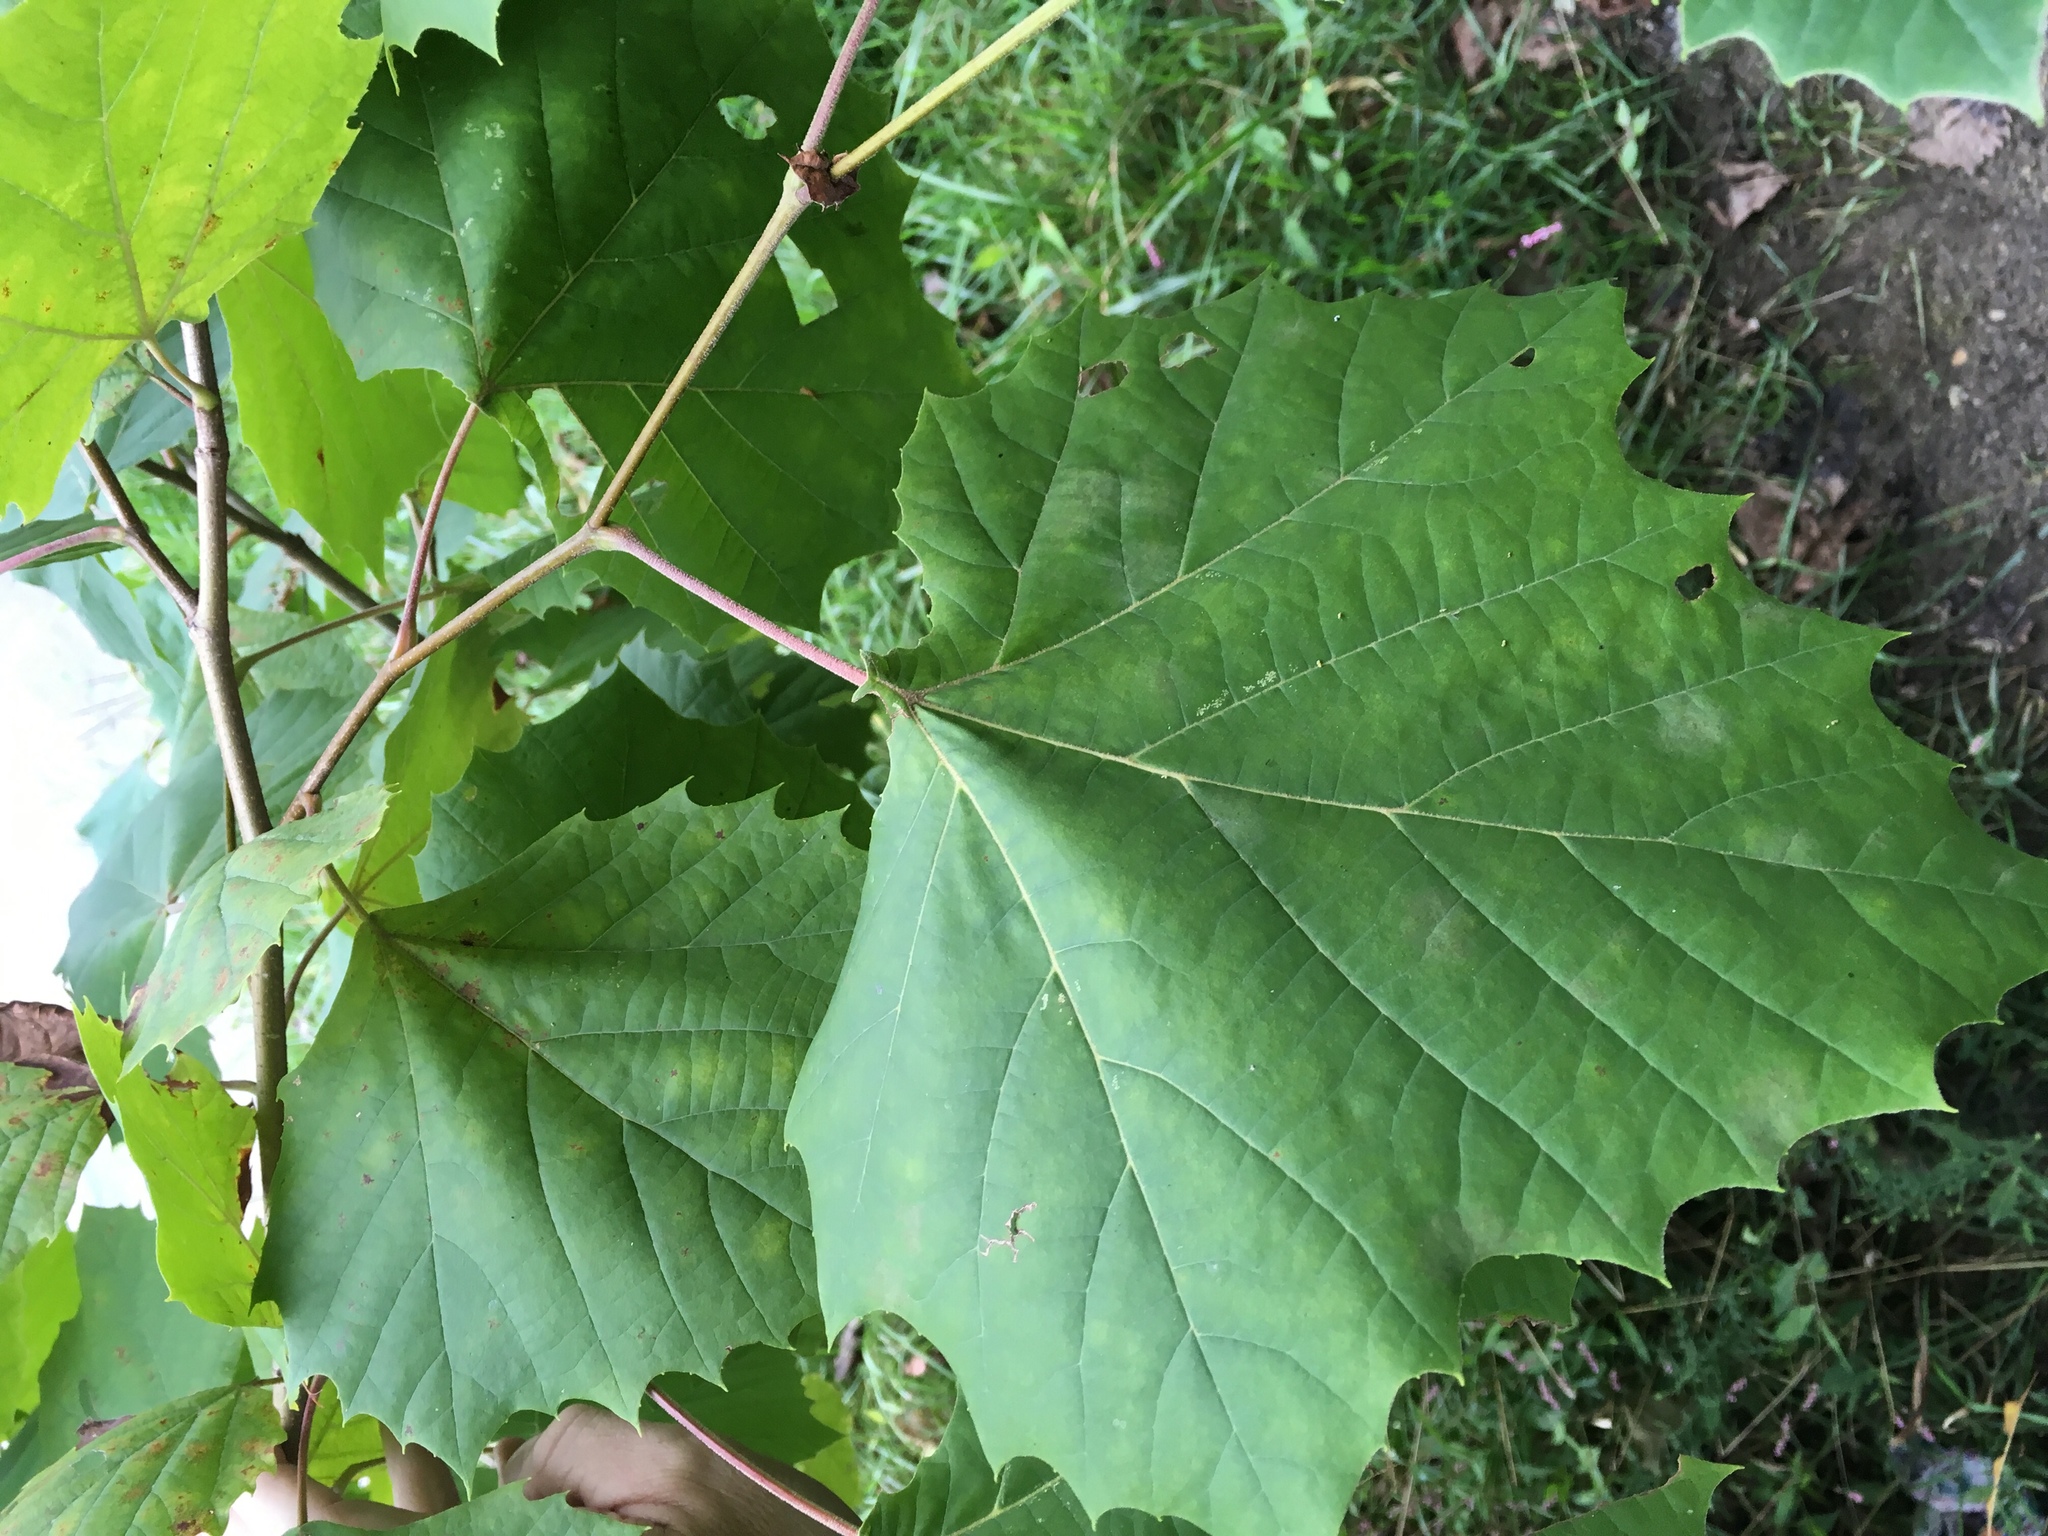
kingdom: Plantae
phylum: Tracheophyta
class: Magnoliopsida
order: Proteales
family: Platanaceae
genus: Platanus
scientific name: Platanus occidentalis
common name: American sycamore
